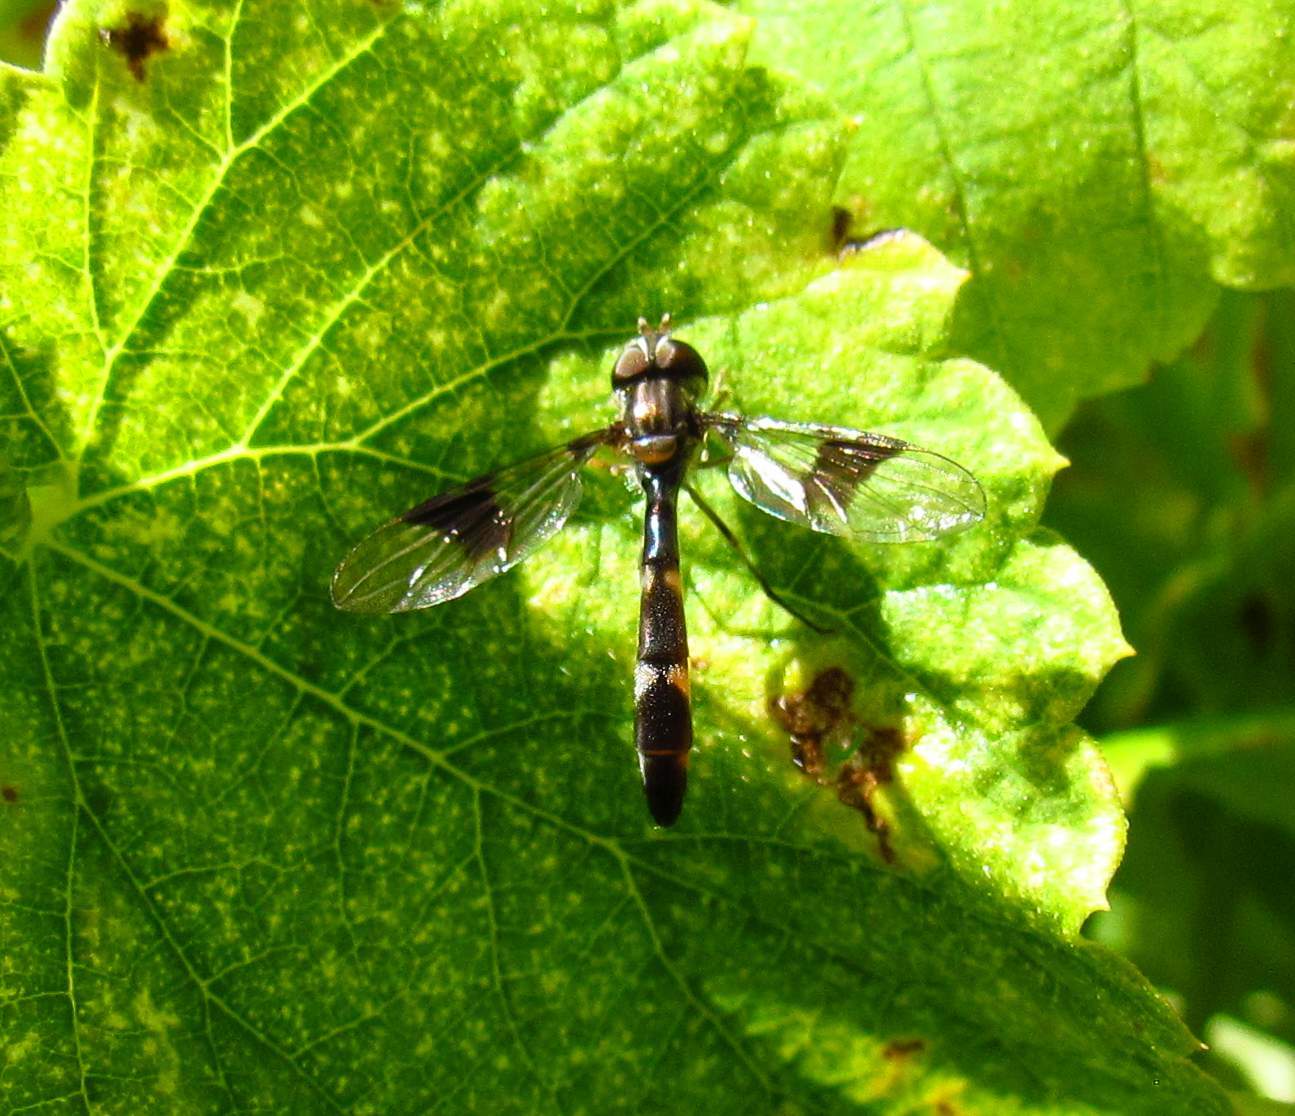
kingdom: Animalia
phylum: Arthropoda
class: Insecta
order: Diptera
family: Syrphidae
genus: Hypocritanus
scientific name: Hypocritanus fascipennis
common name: Eastern band-winged hover fly
